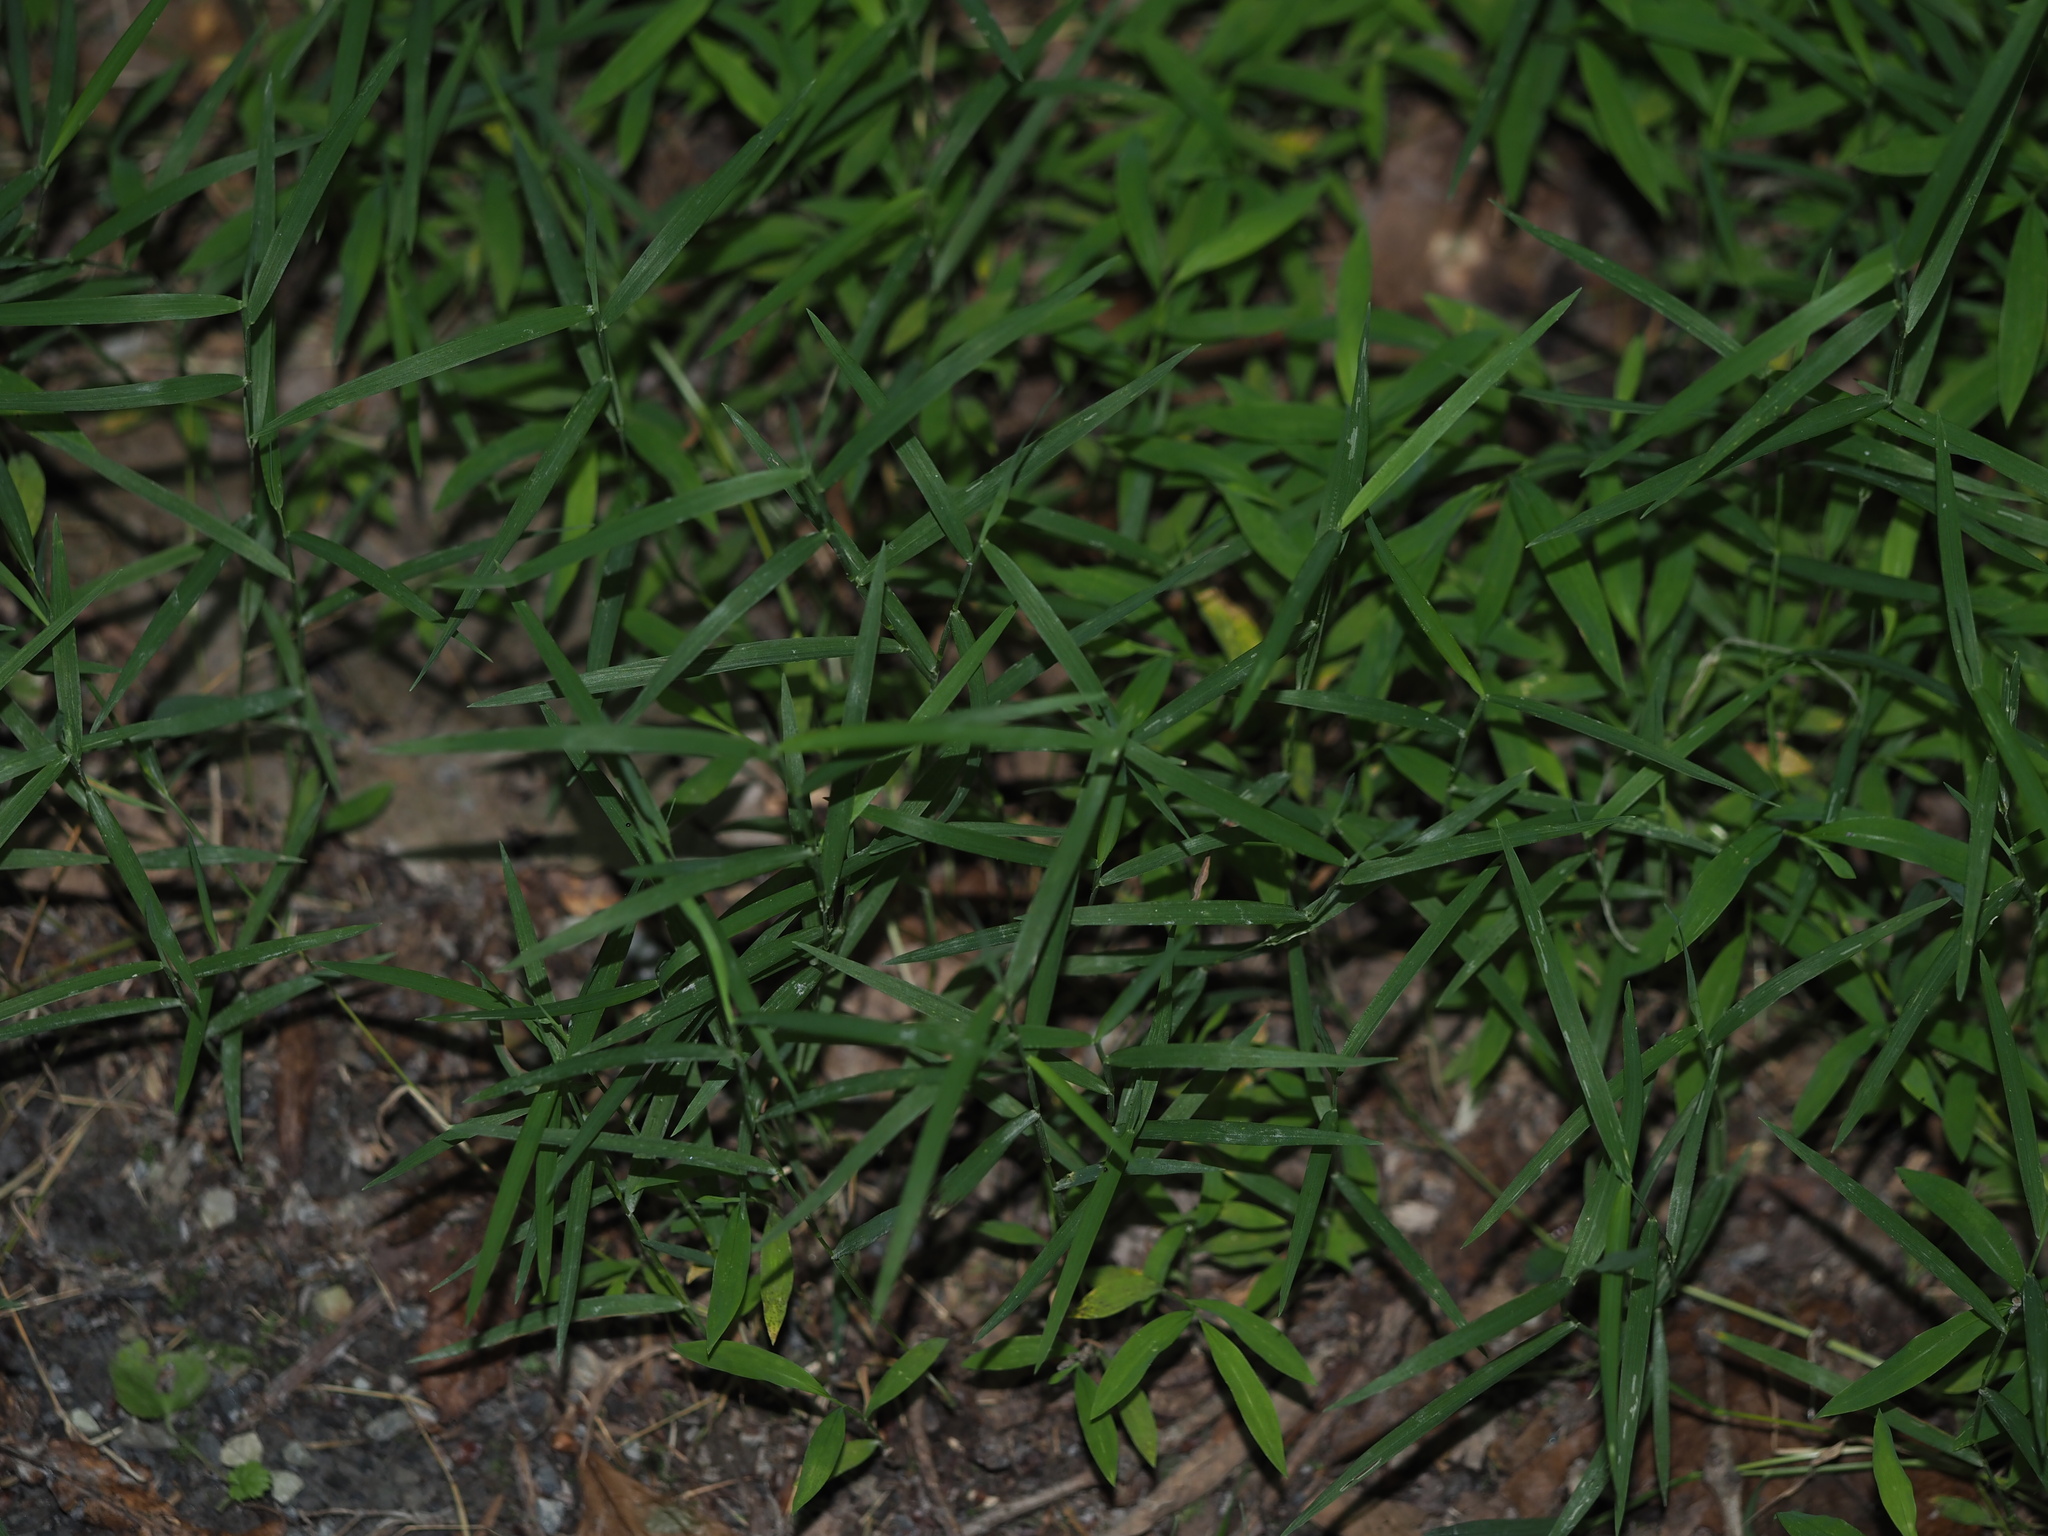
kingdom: Plantae
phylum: Tracheophyta
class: Liliopsida
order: Poales
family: Poaceae
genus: Muhlenbergia
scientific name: Muhlenbergia schreberi
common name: Nimblewill
